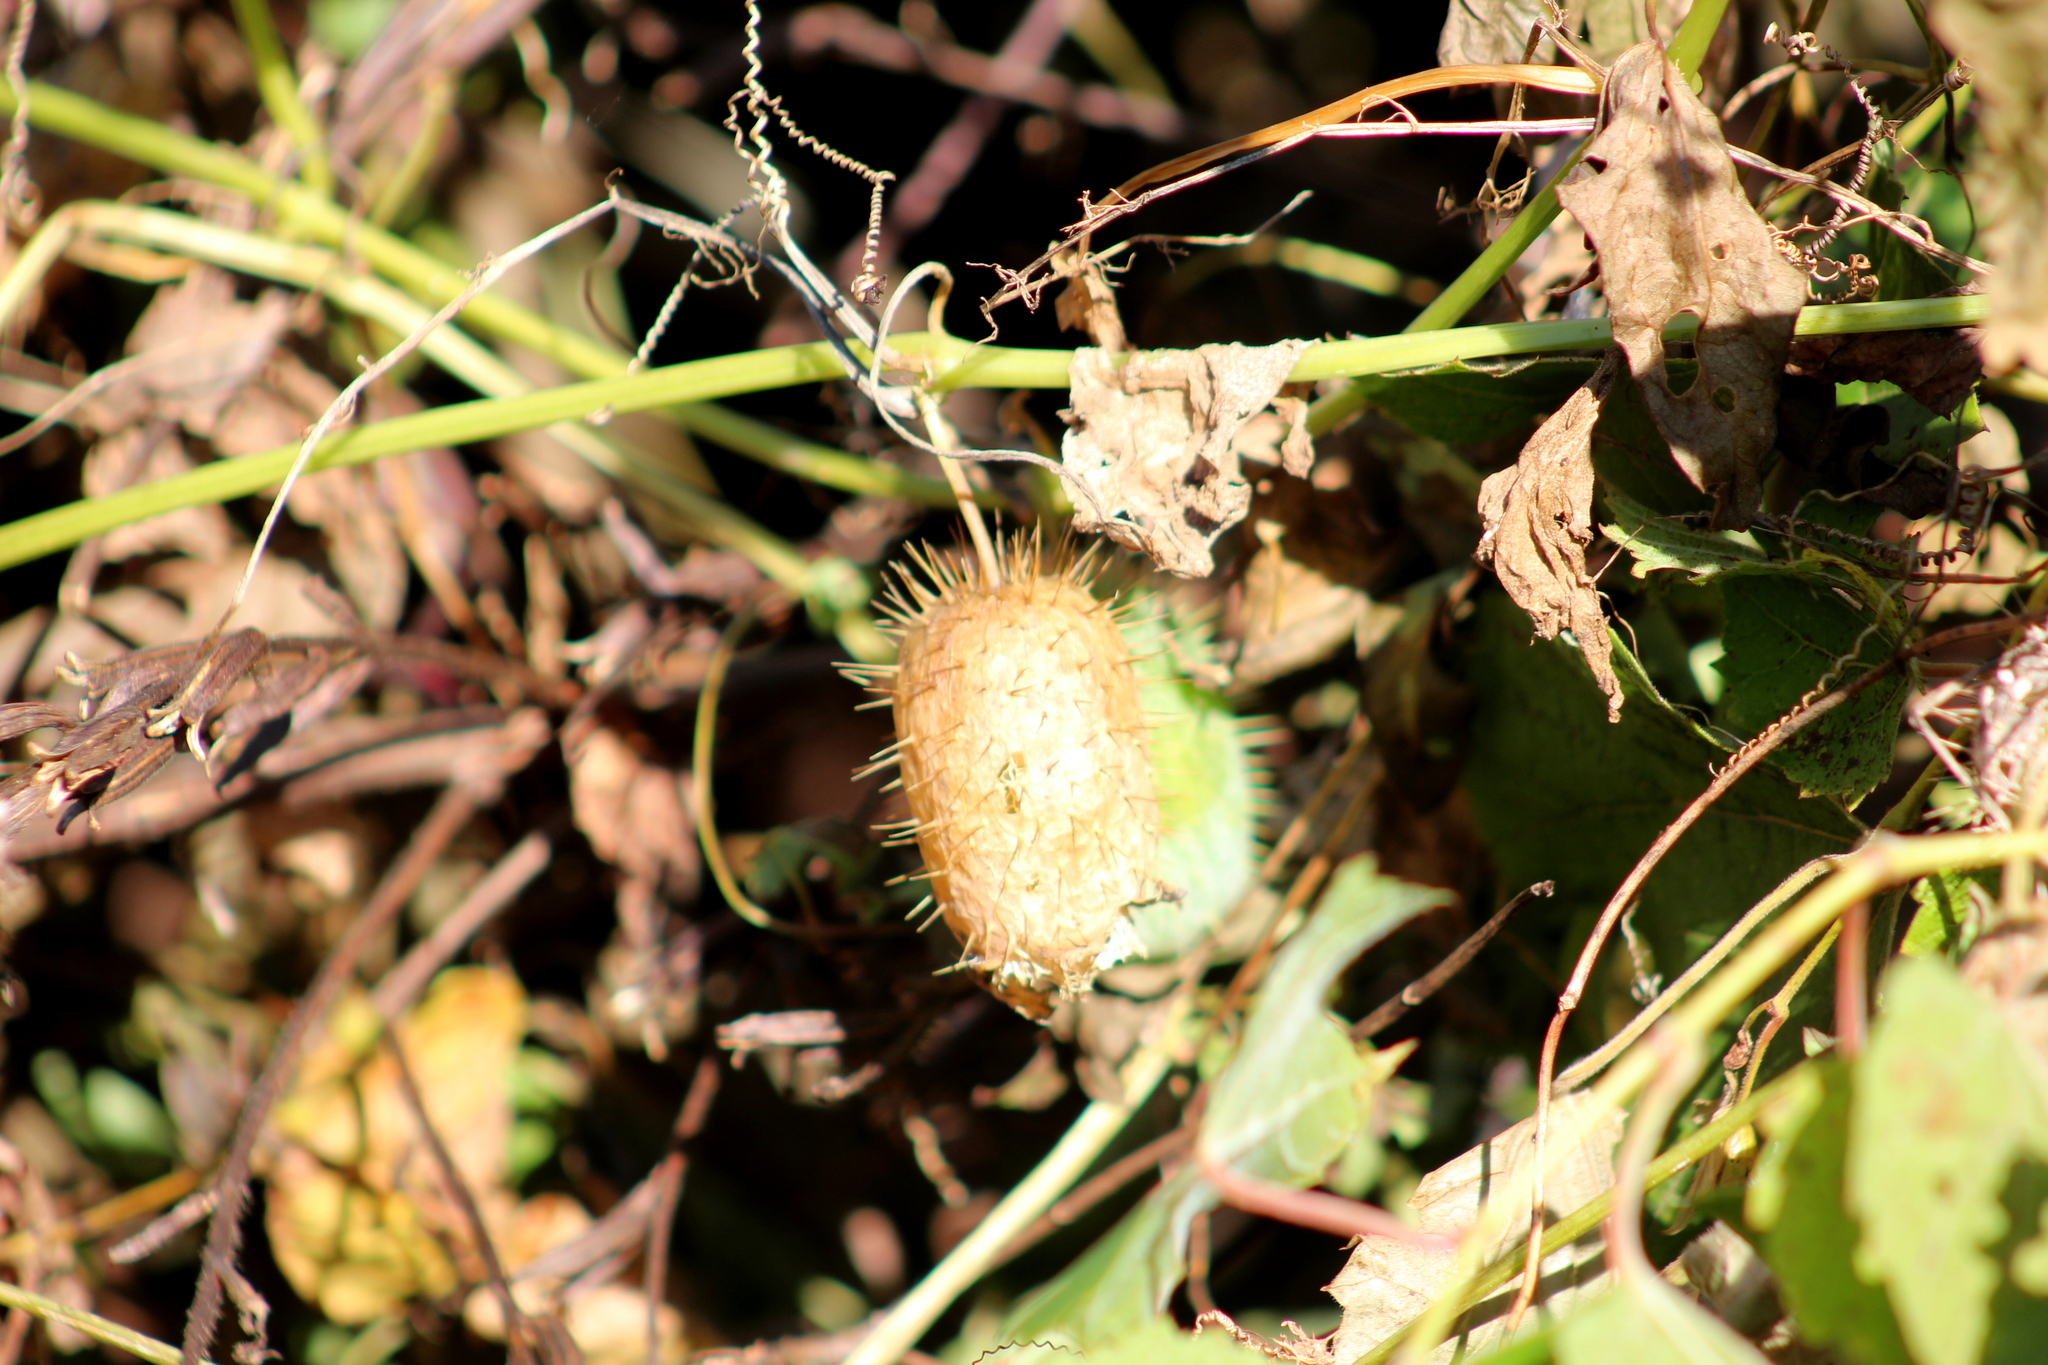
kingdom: Plantae
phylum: Tracheophyta
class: Magnoliopsida
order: Cucurbitales
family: Cucurbitaceae
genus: Echinocystis
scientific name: Echinocystis lobata
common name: Wild cucumber
